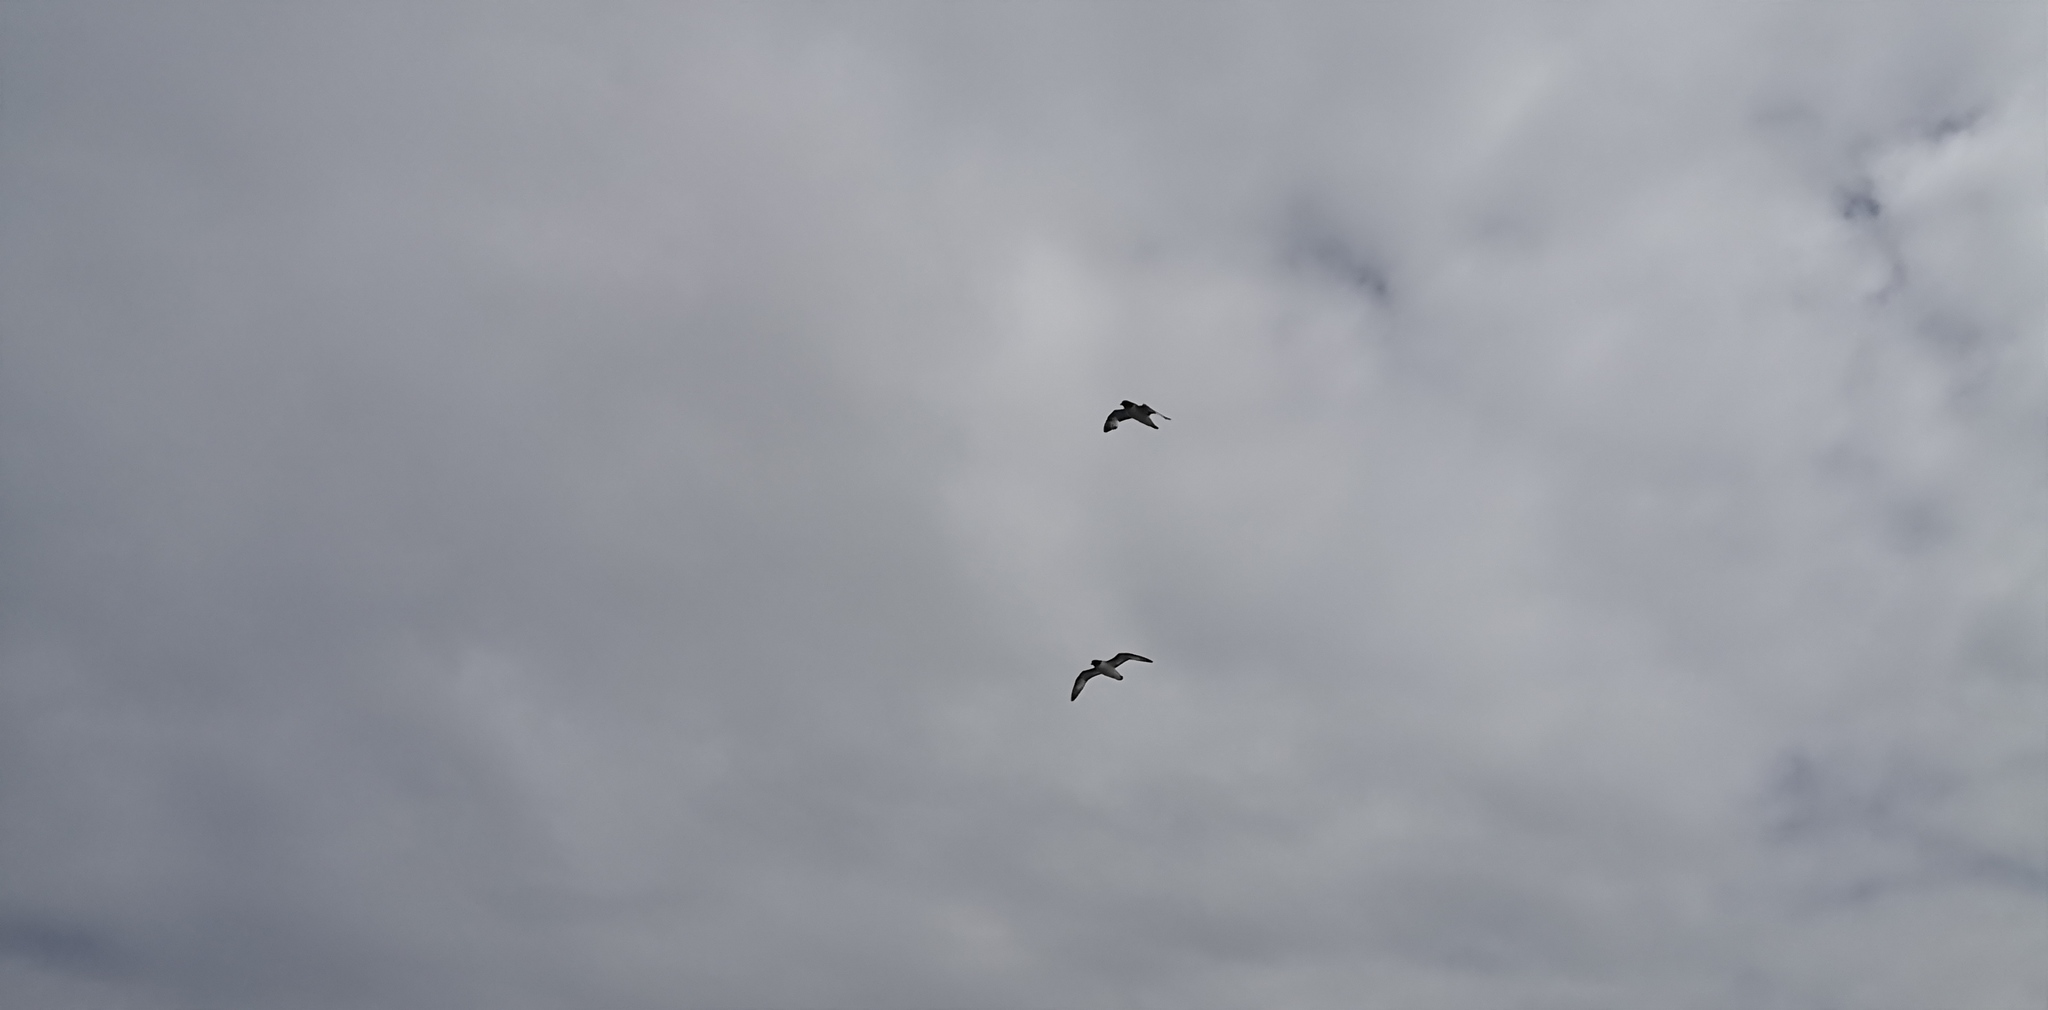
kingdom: Animalia
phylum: Chordata
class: Aves
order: Procellariiformes
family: Procellariidae
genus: Daption
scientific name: Daption capense
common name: Cape petrel
